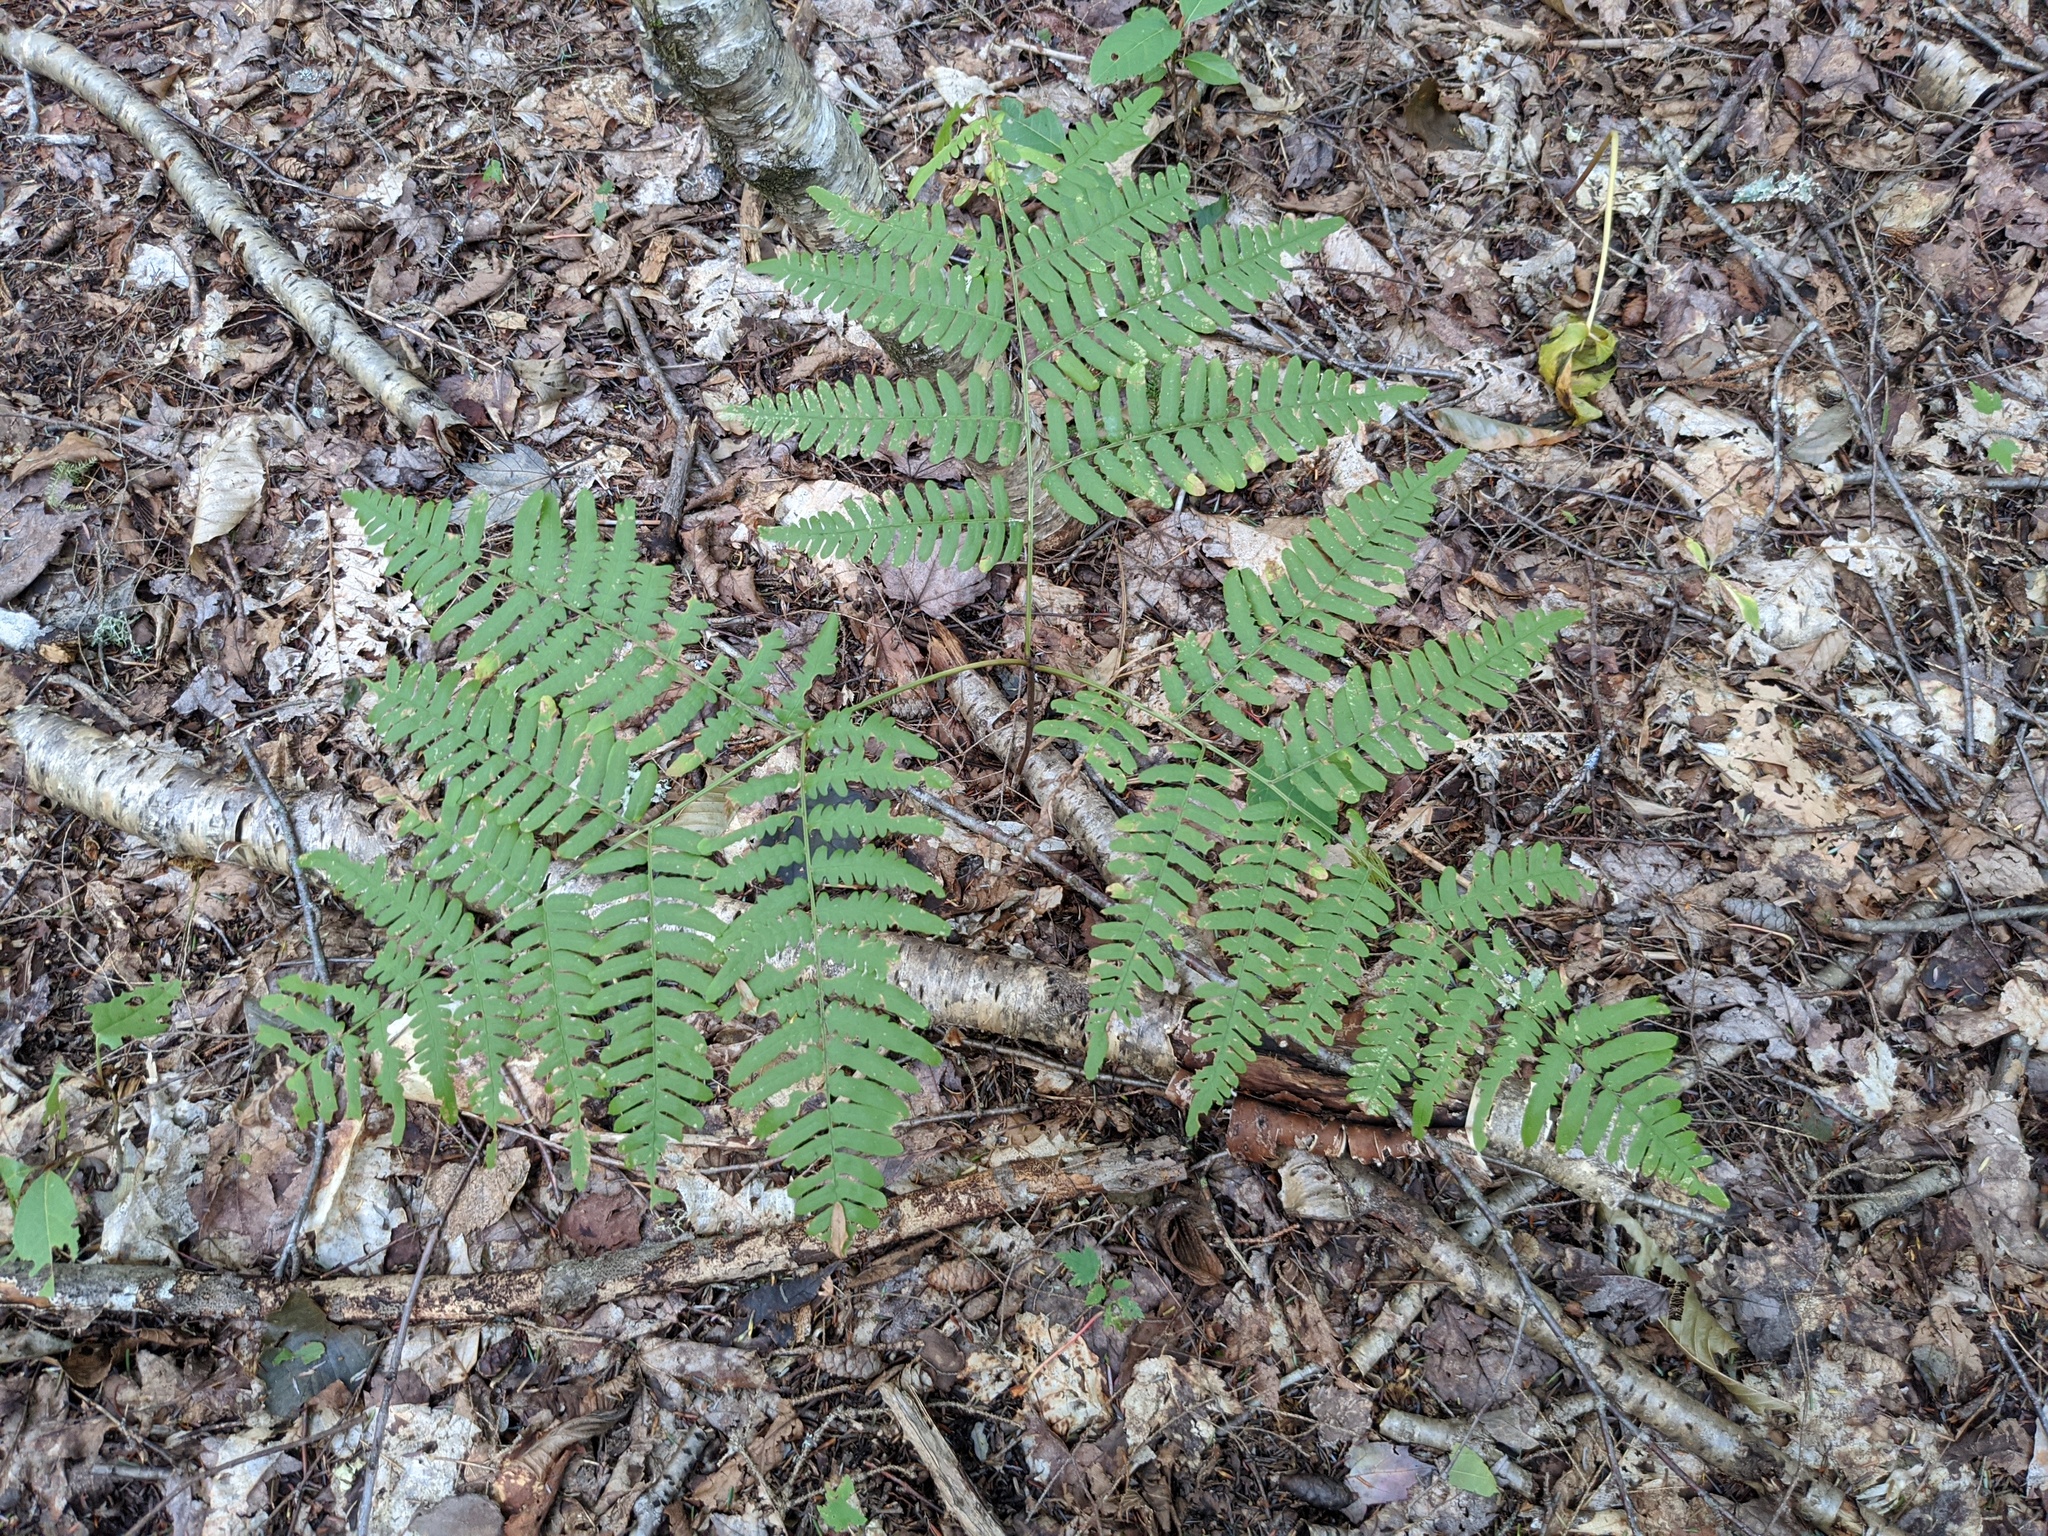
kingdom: Plantae
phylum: Tracheophyta
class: Polypodiopsida
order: Polypodiales
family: Dennstaedtiaceae
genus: Pteridium
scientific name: Pteridium aquilinum
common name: Bracken
